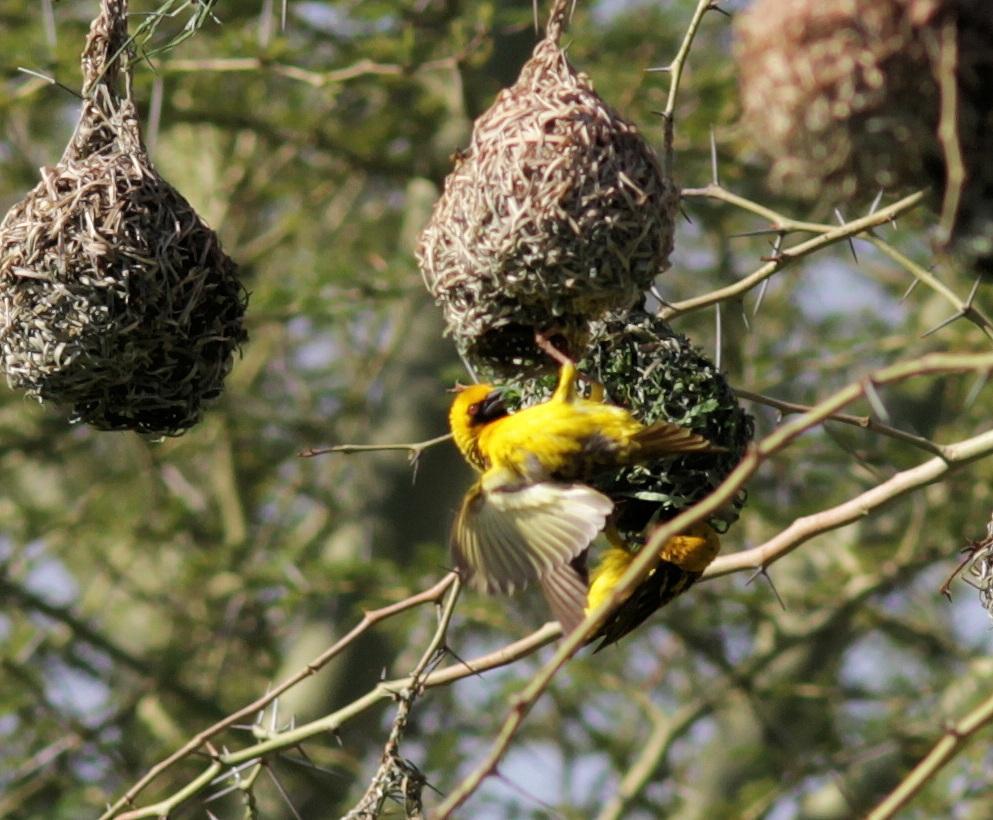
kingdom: Animalia
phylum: Chordata
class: Aves
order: Passeriformes
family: Ploceidae
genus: Ploceus
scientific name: Ploceus cucullatus
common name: Village weaver
